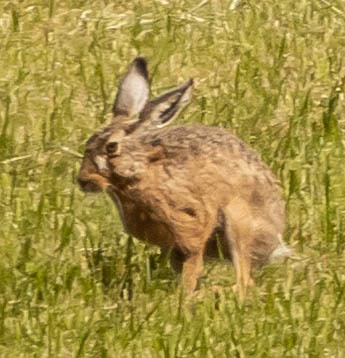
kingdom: Animalia
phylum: Chordata
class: Mammalia
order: Lagomorpha
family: Leporidae
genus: Lepus
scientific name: Lepus europaeus
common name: European hare
